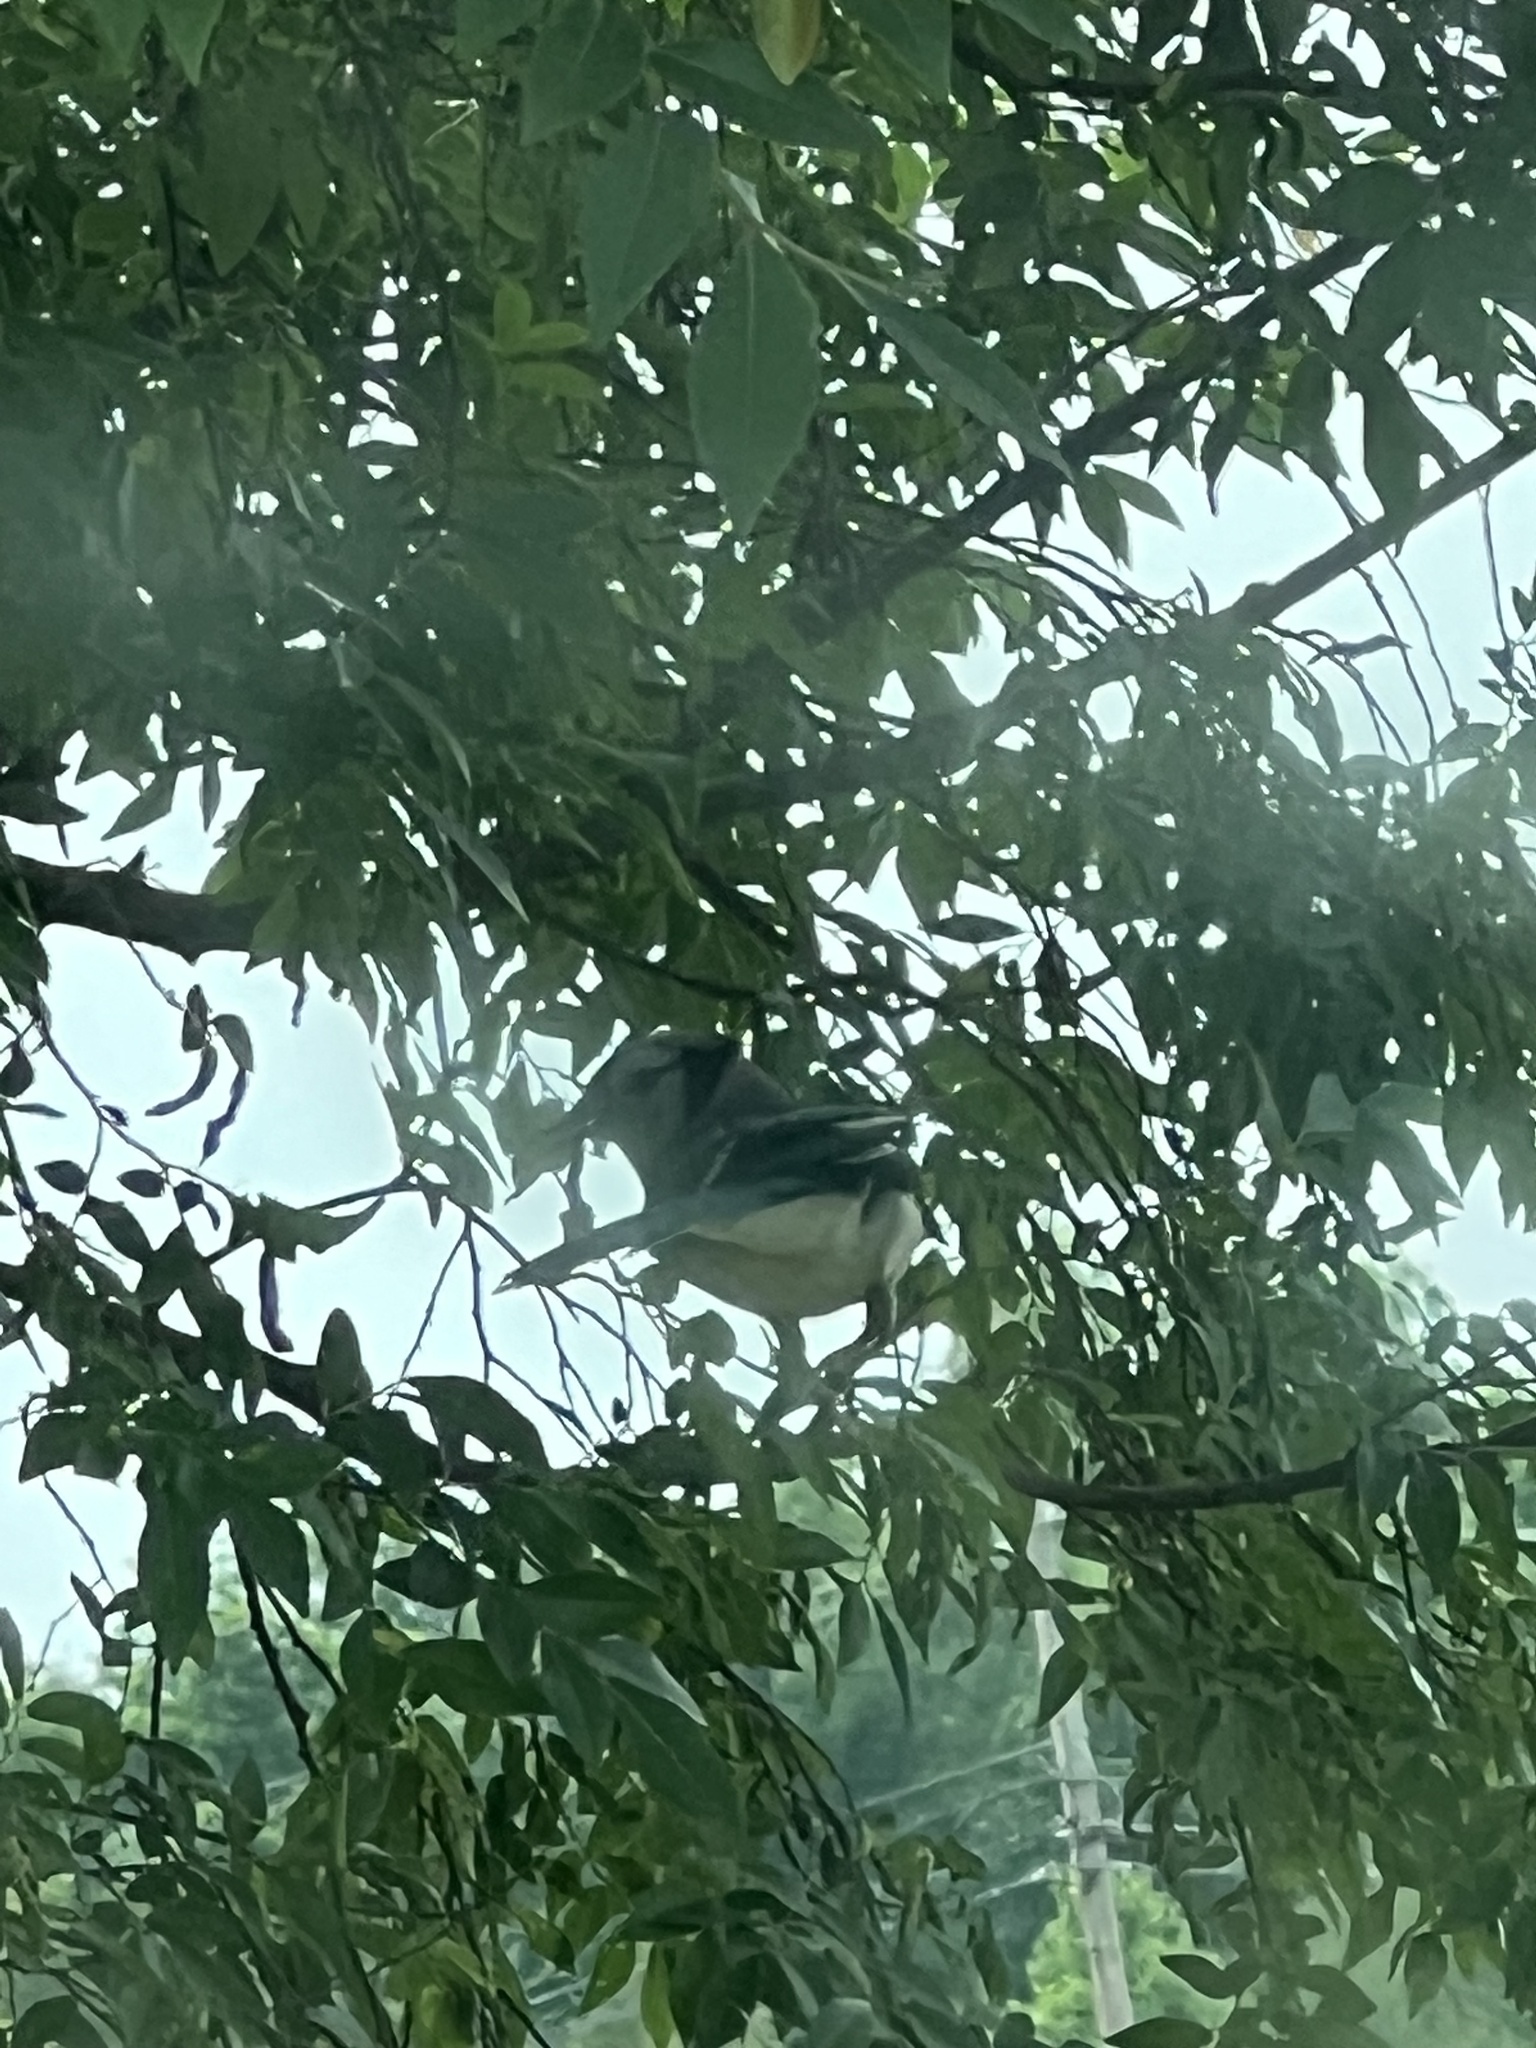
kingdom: Animalia
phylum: Chordata
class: Aves
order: Passeriformes
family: Corvidae
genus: Cyanocitta
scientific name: Cyanocitta cristata
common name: Blue jay
